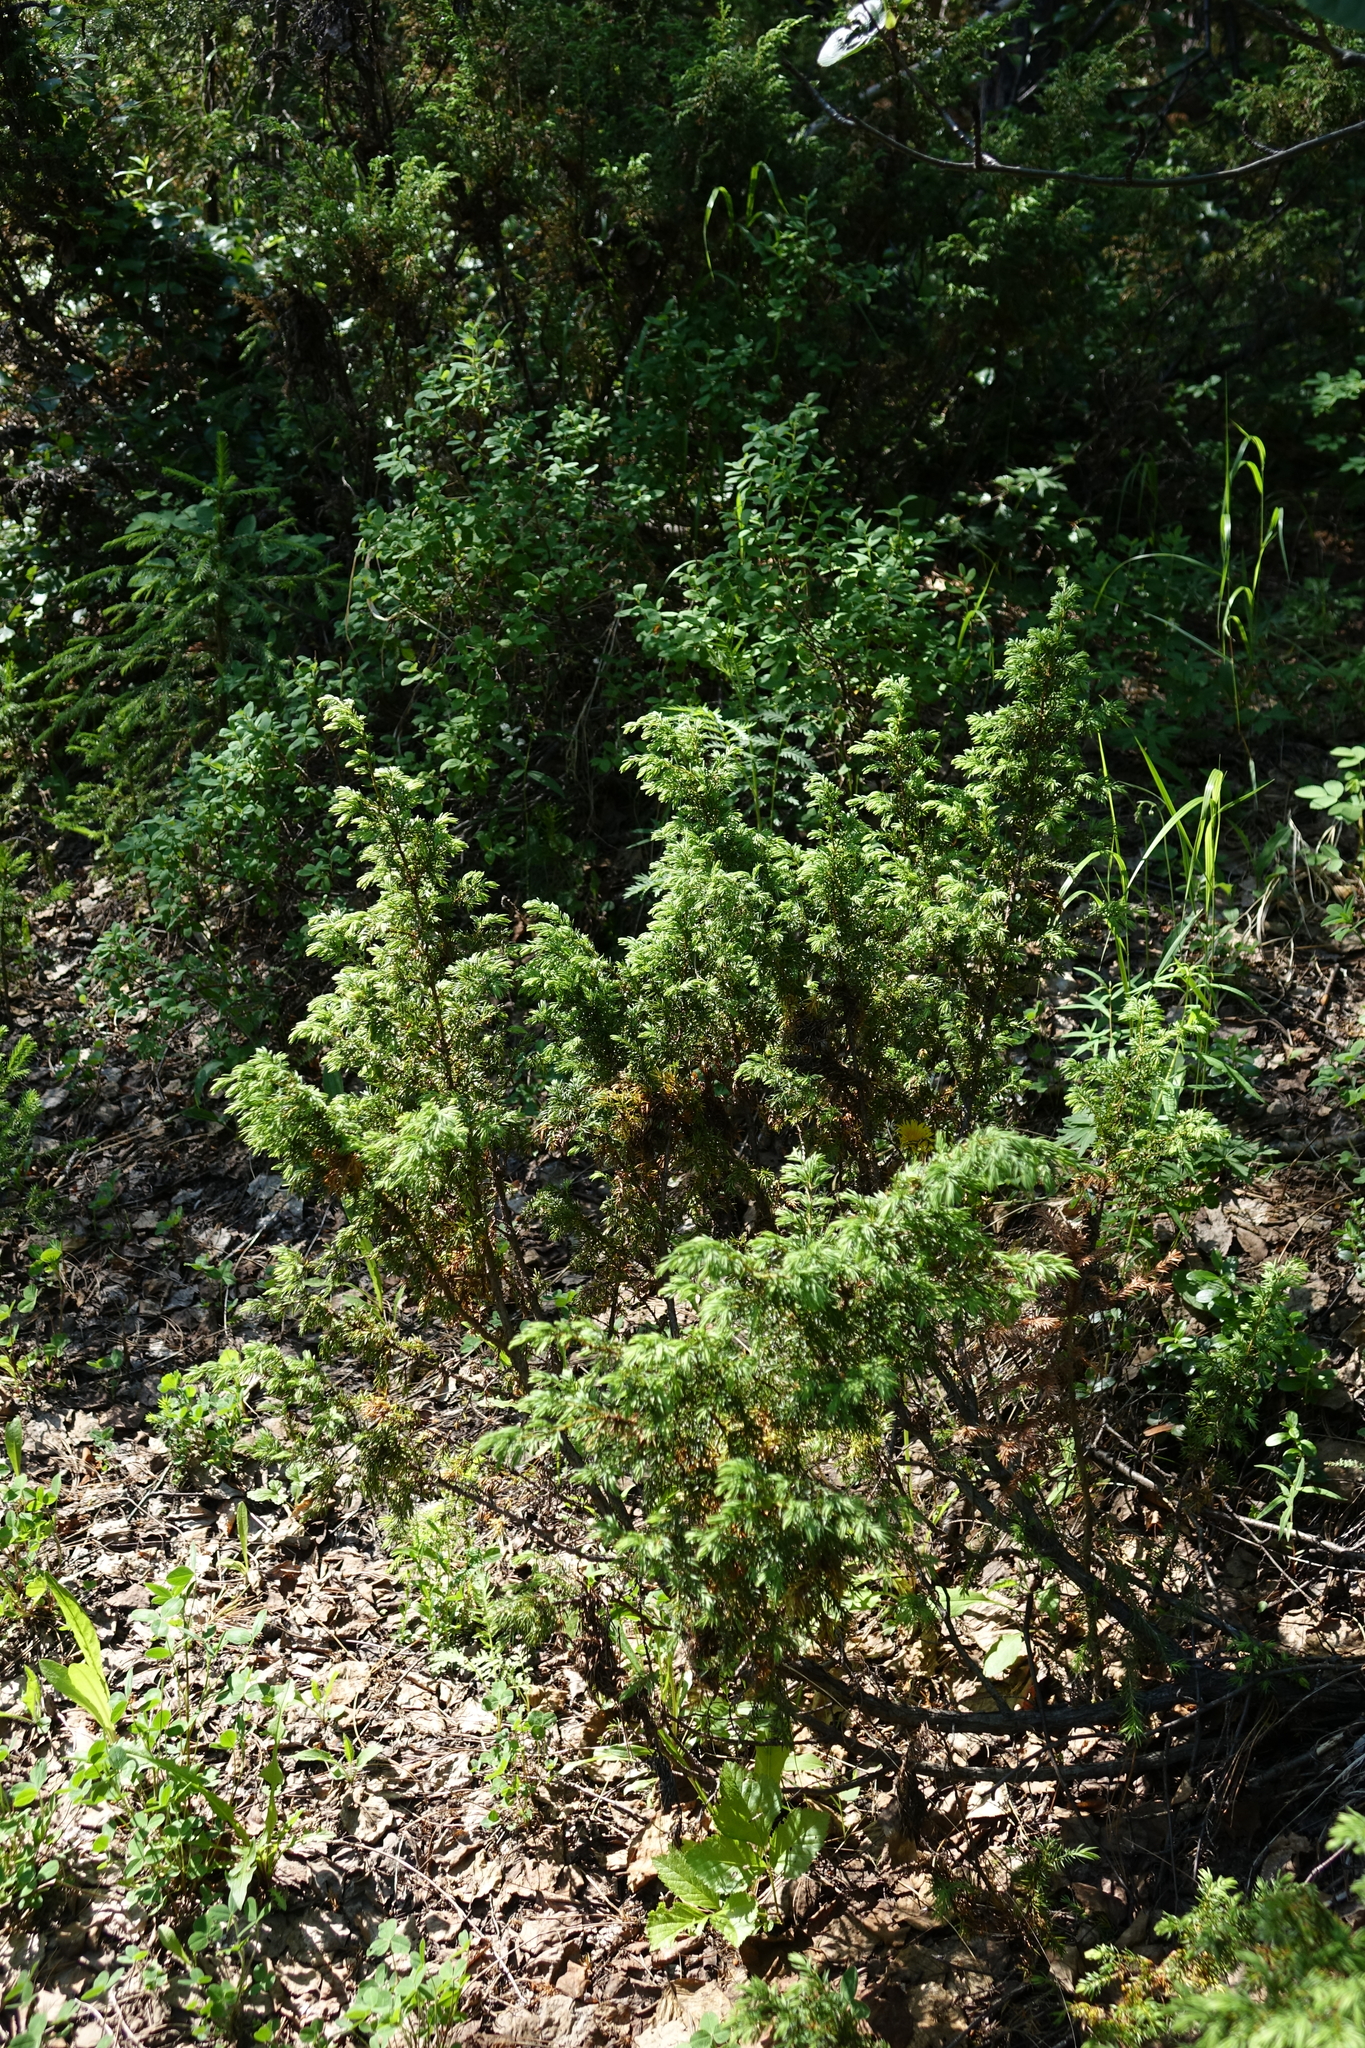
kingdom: Plantae
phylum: Tracheophyta
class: Pinopsida
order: Pinales
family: Cupressaceae
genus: Juniperus
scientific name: Juniperus communis
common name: Common juniper
